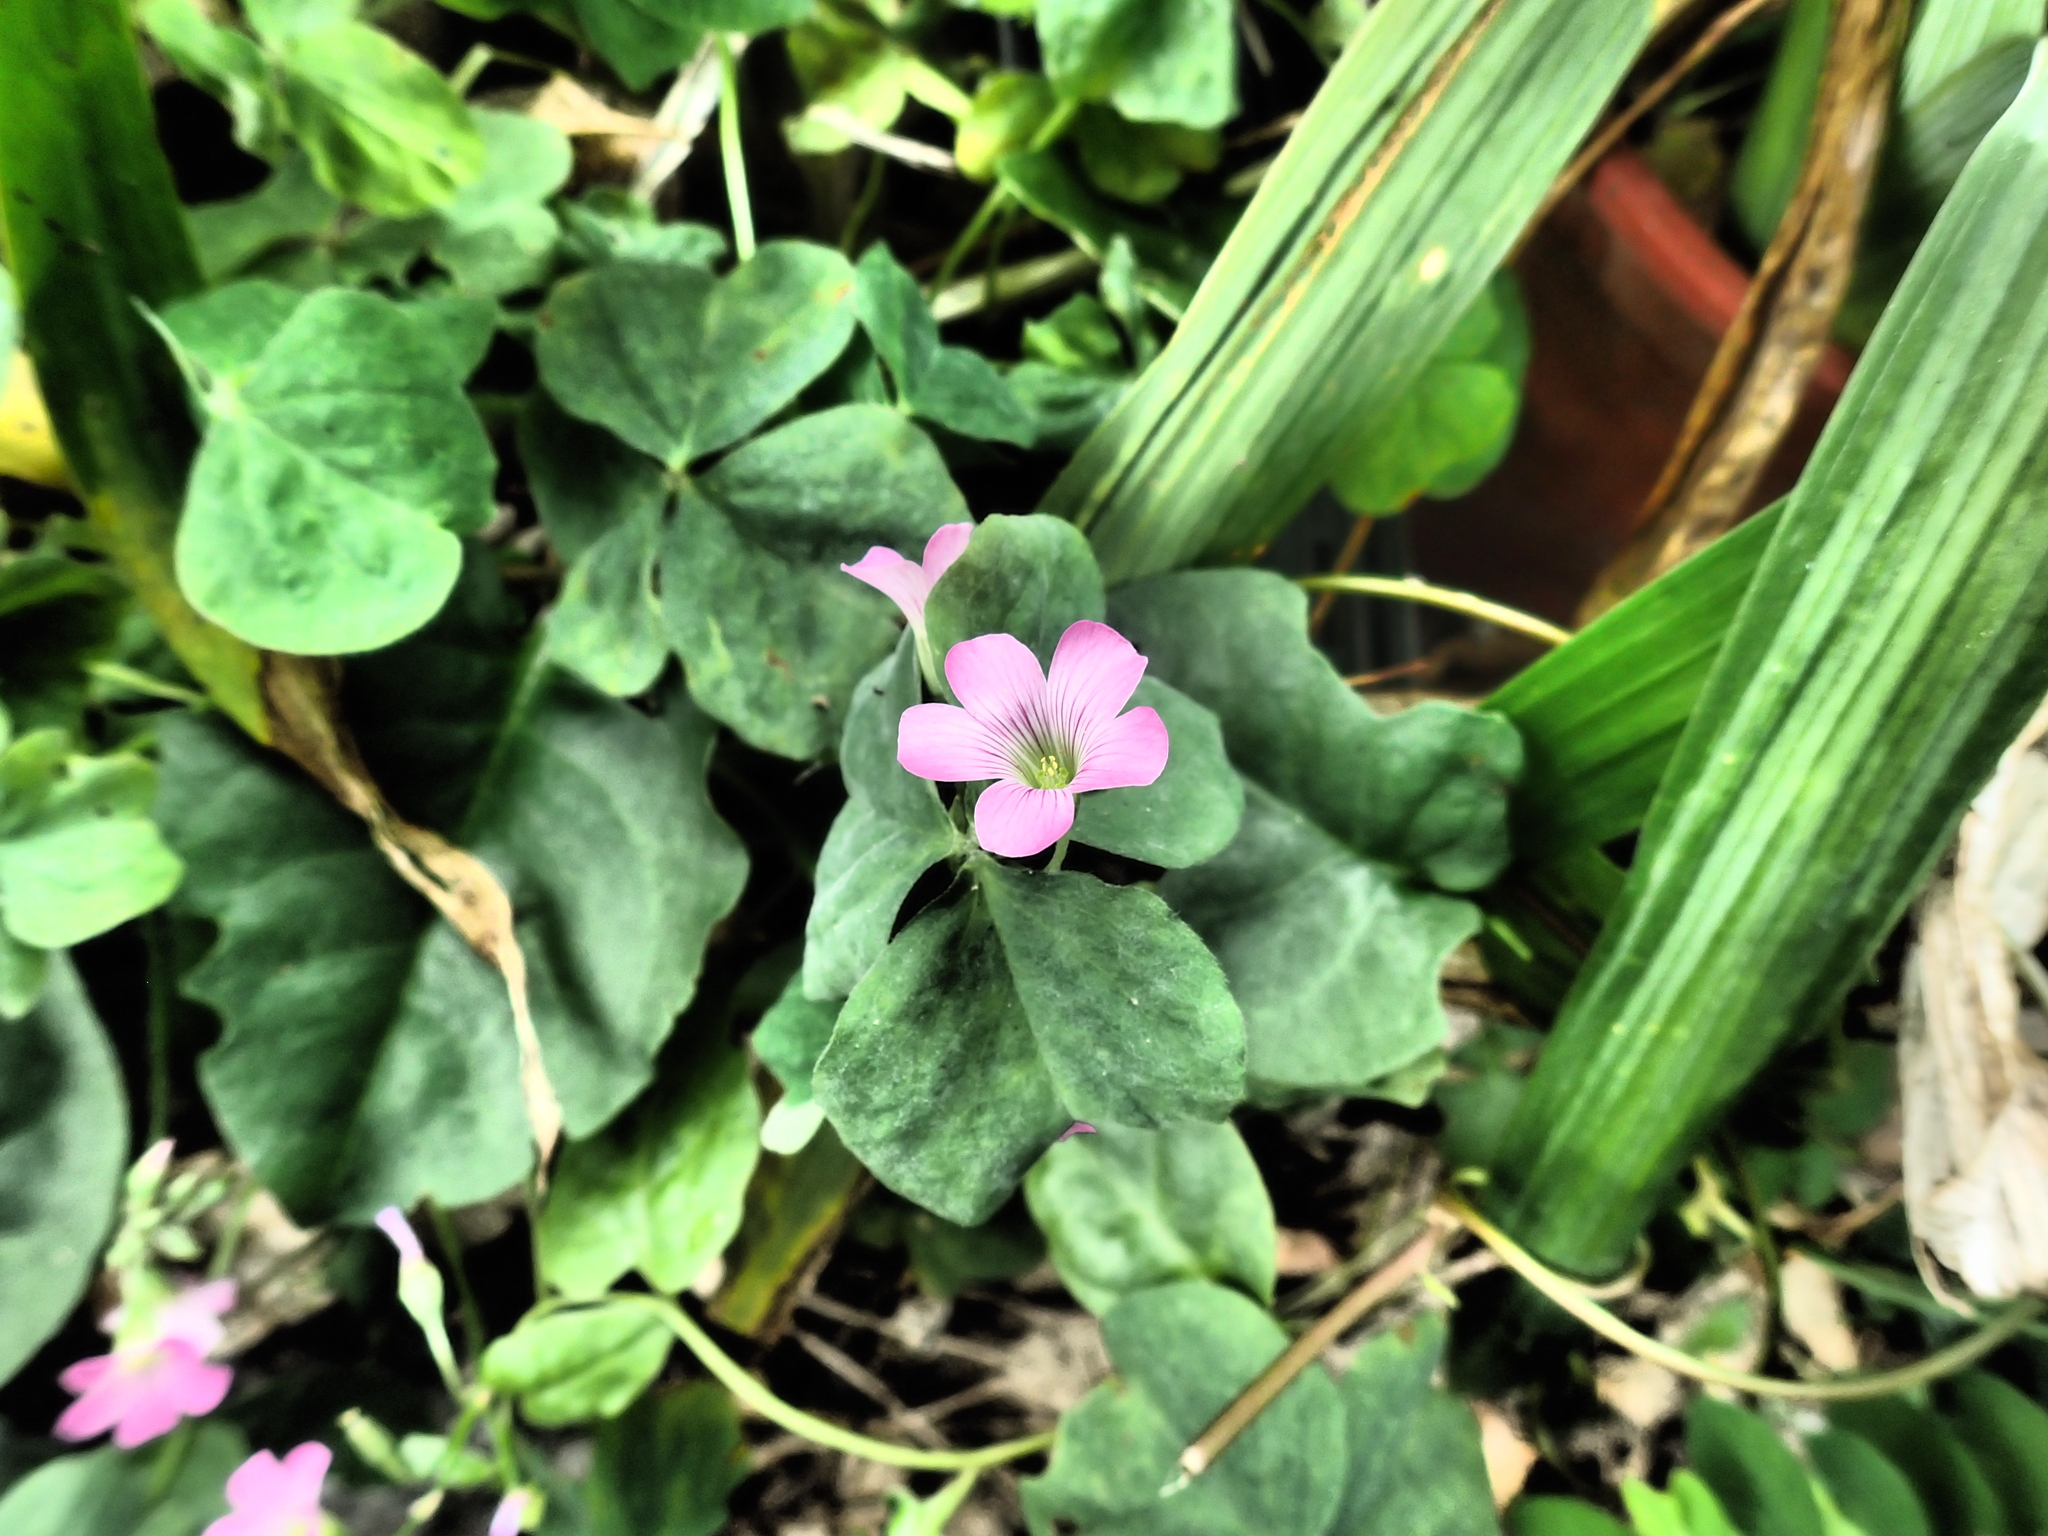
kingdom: Plantae
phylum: Tracheophyta
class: Magnoliopsida
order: Oxalidales
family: Oxalidaceae
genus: Oxalis
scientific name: Oxalis debilis
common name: Large-flowered pink-sorrel
